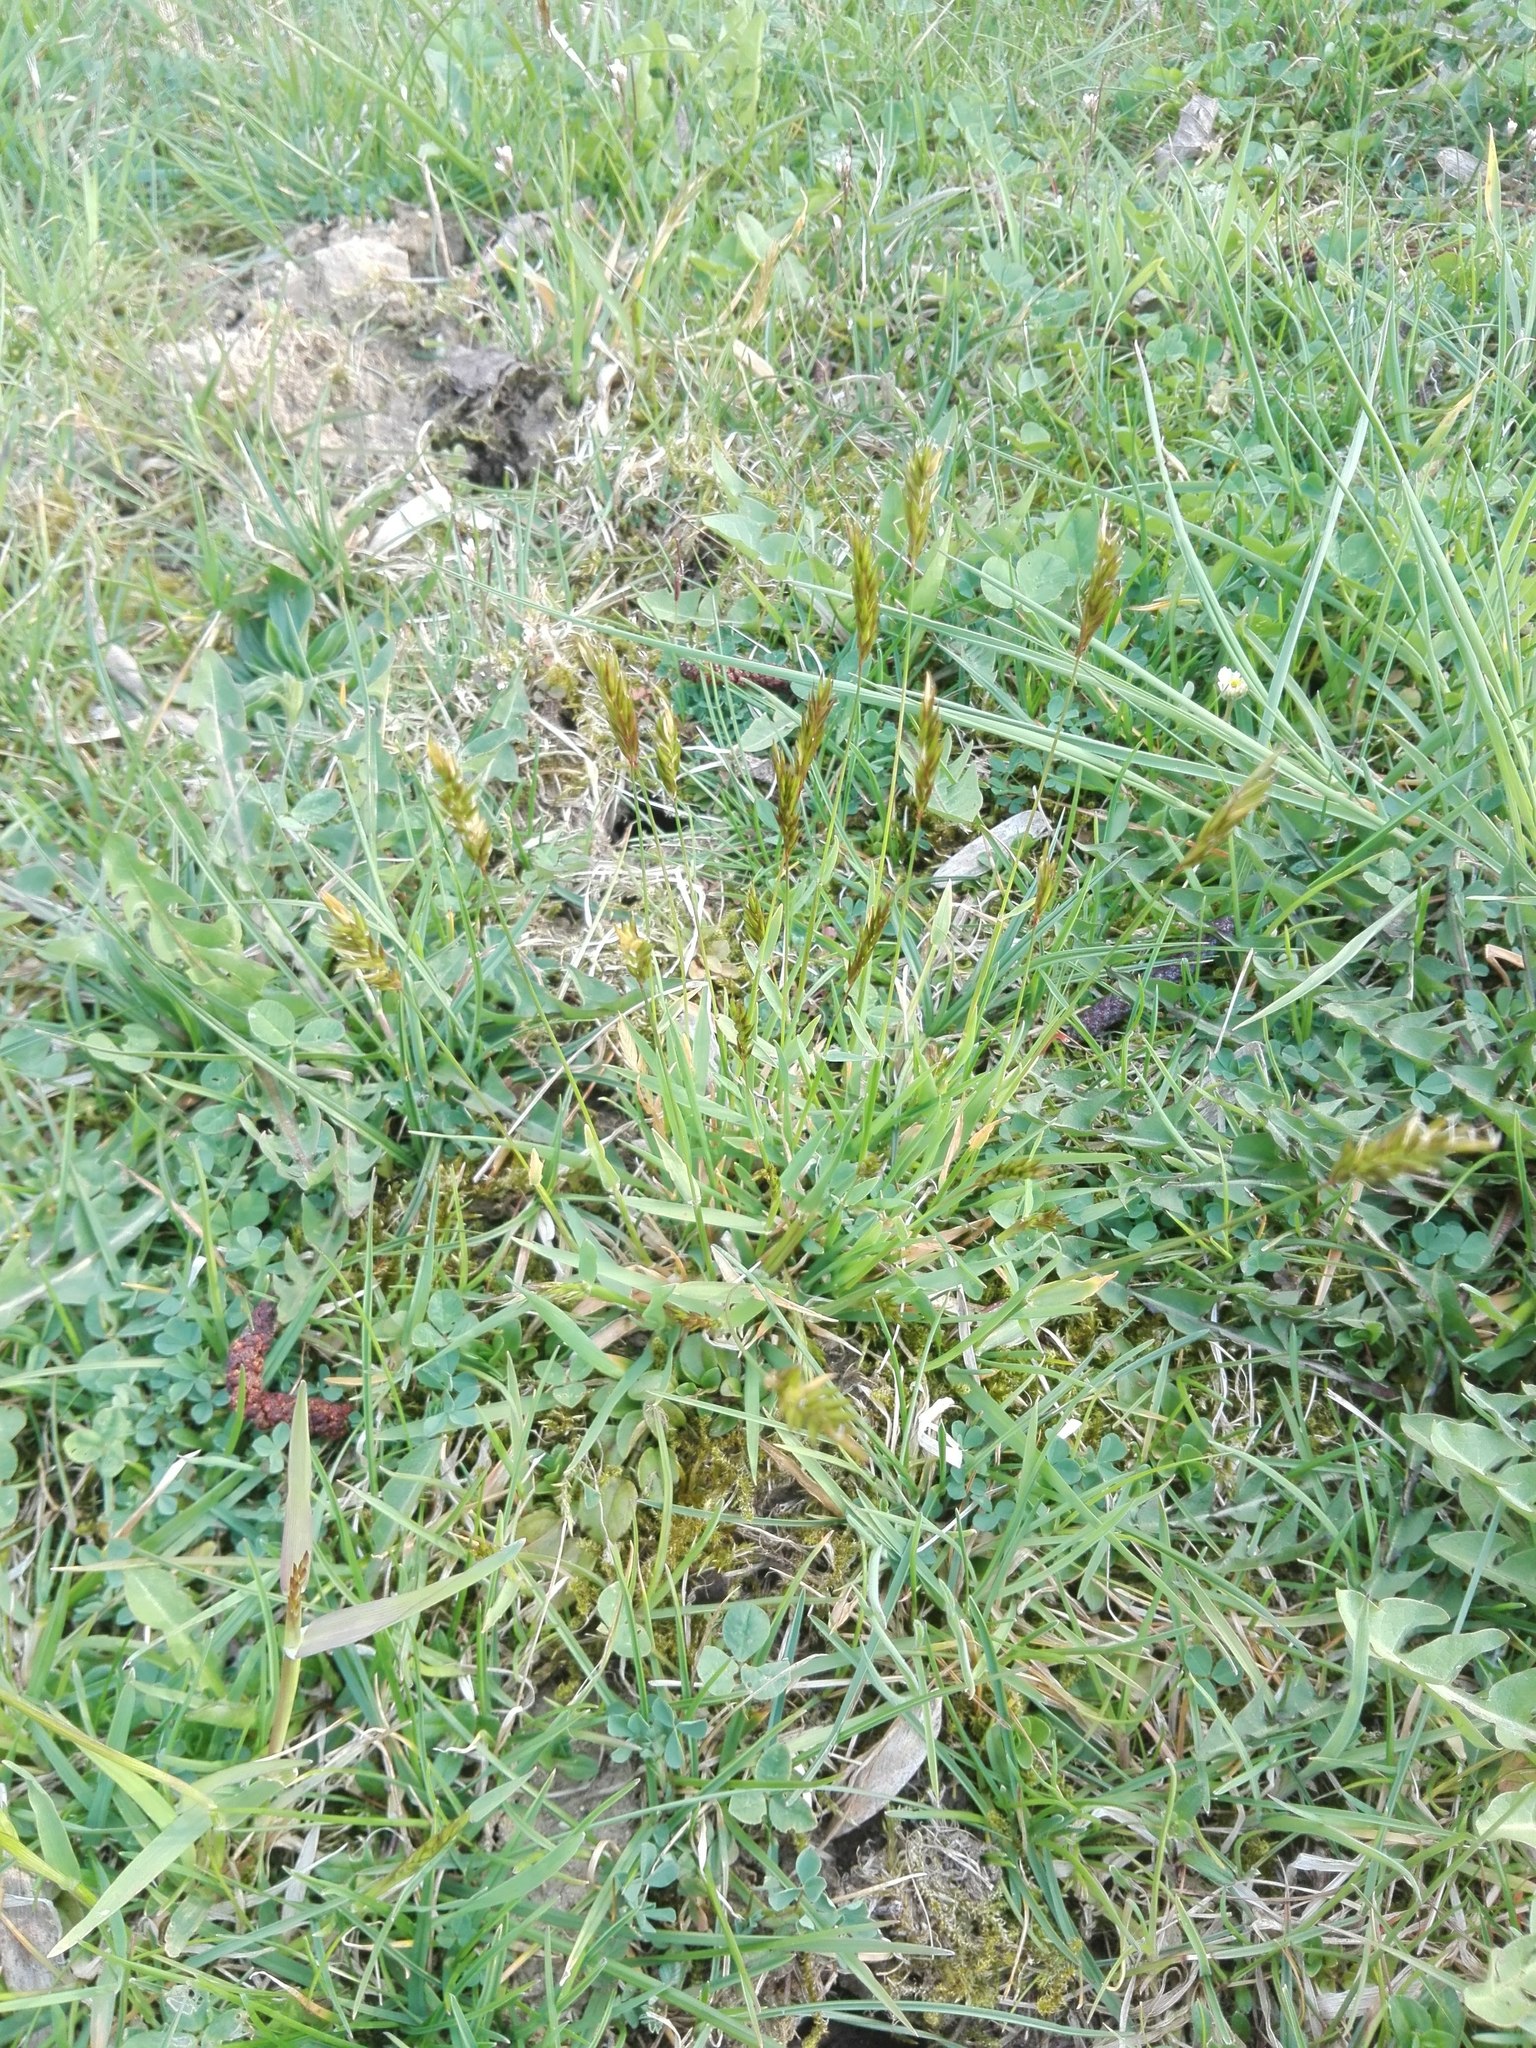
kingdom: Plantae
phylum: Tracheophyta
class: Liliopsida
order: Poales
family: Poaceae
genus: Anthoxanthum
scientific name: Anthoxanthum odoratum
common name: Sweet vernalgrass
